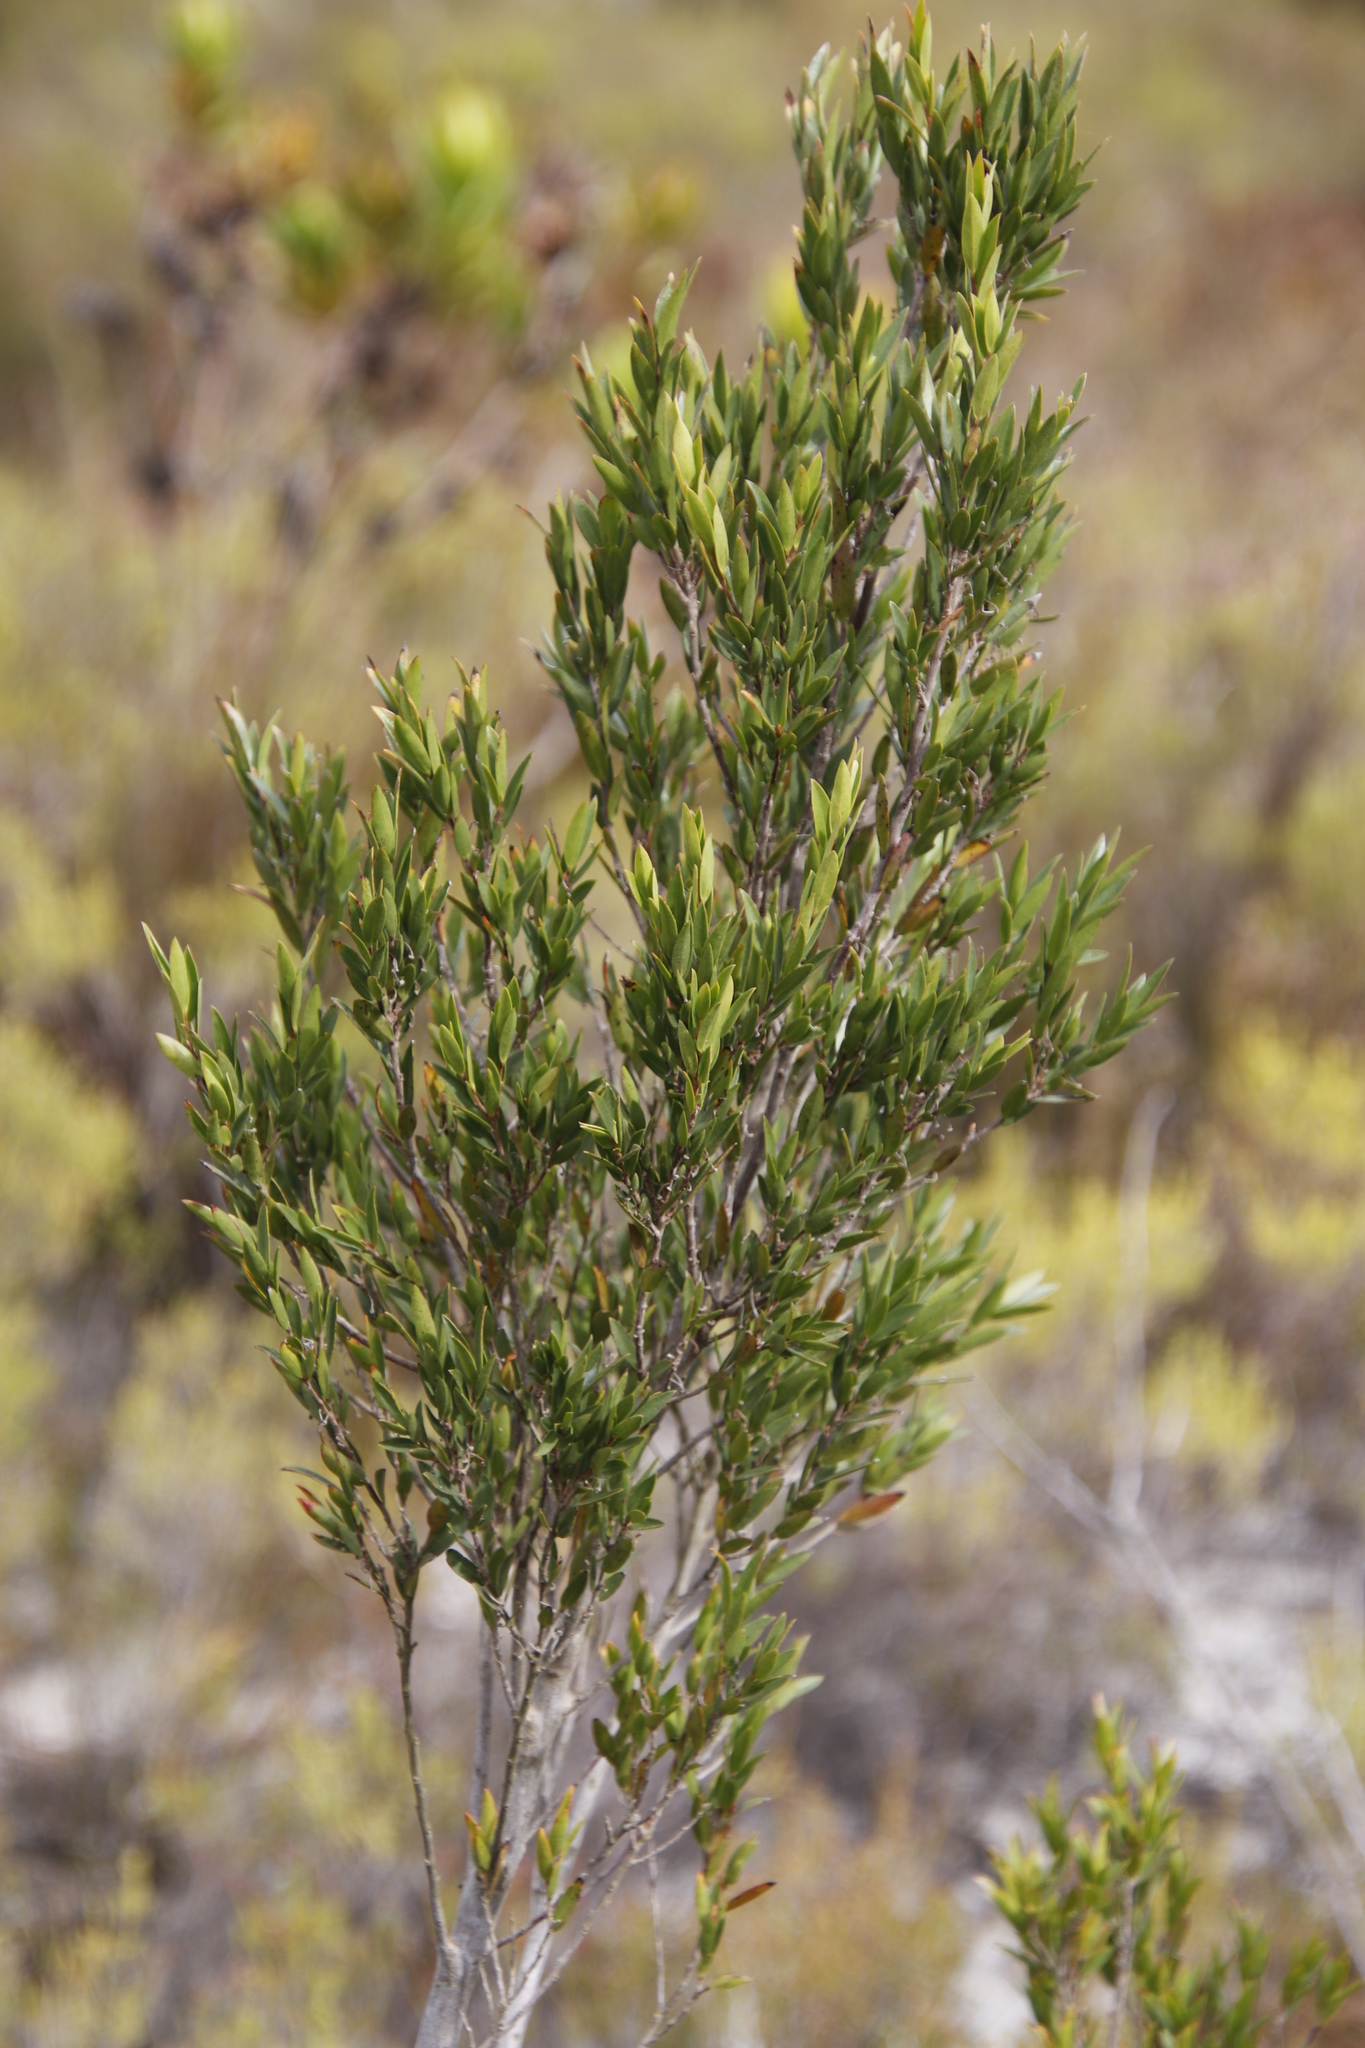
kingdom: Plantae
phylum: Tracheophyta
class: Magnoliopsida
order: Ericales
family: Ebenaceae
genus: Diospyros
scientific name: Diospyros glabra
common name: Fynbos star apple
